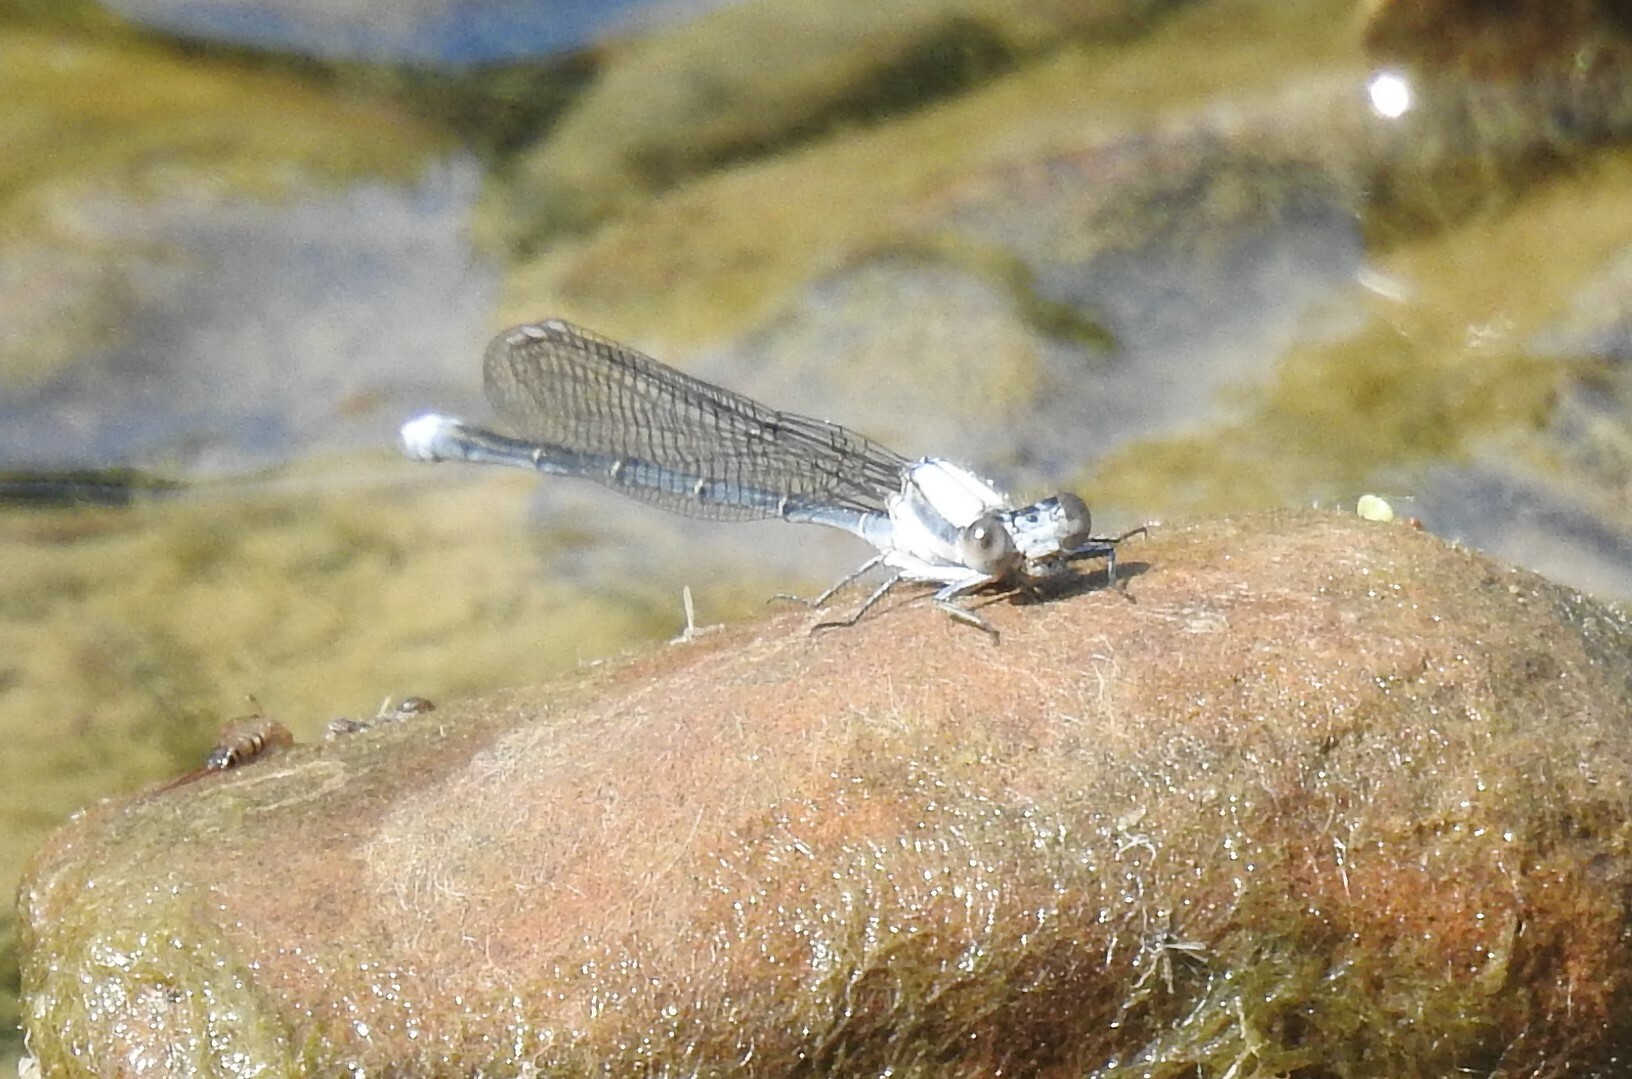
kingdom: Animalia
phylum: Arthropoda
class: Insecta
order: Odonata
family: Coenagrionidae
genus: Argia
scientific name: Argia moesta
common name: Powdered dancer
